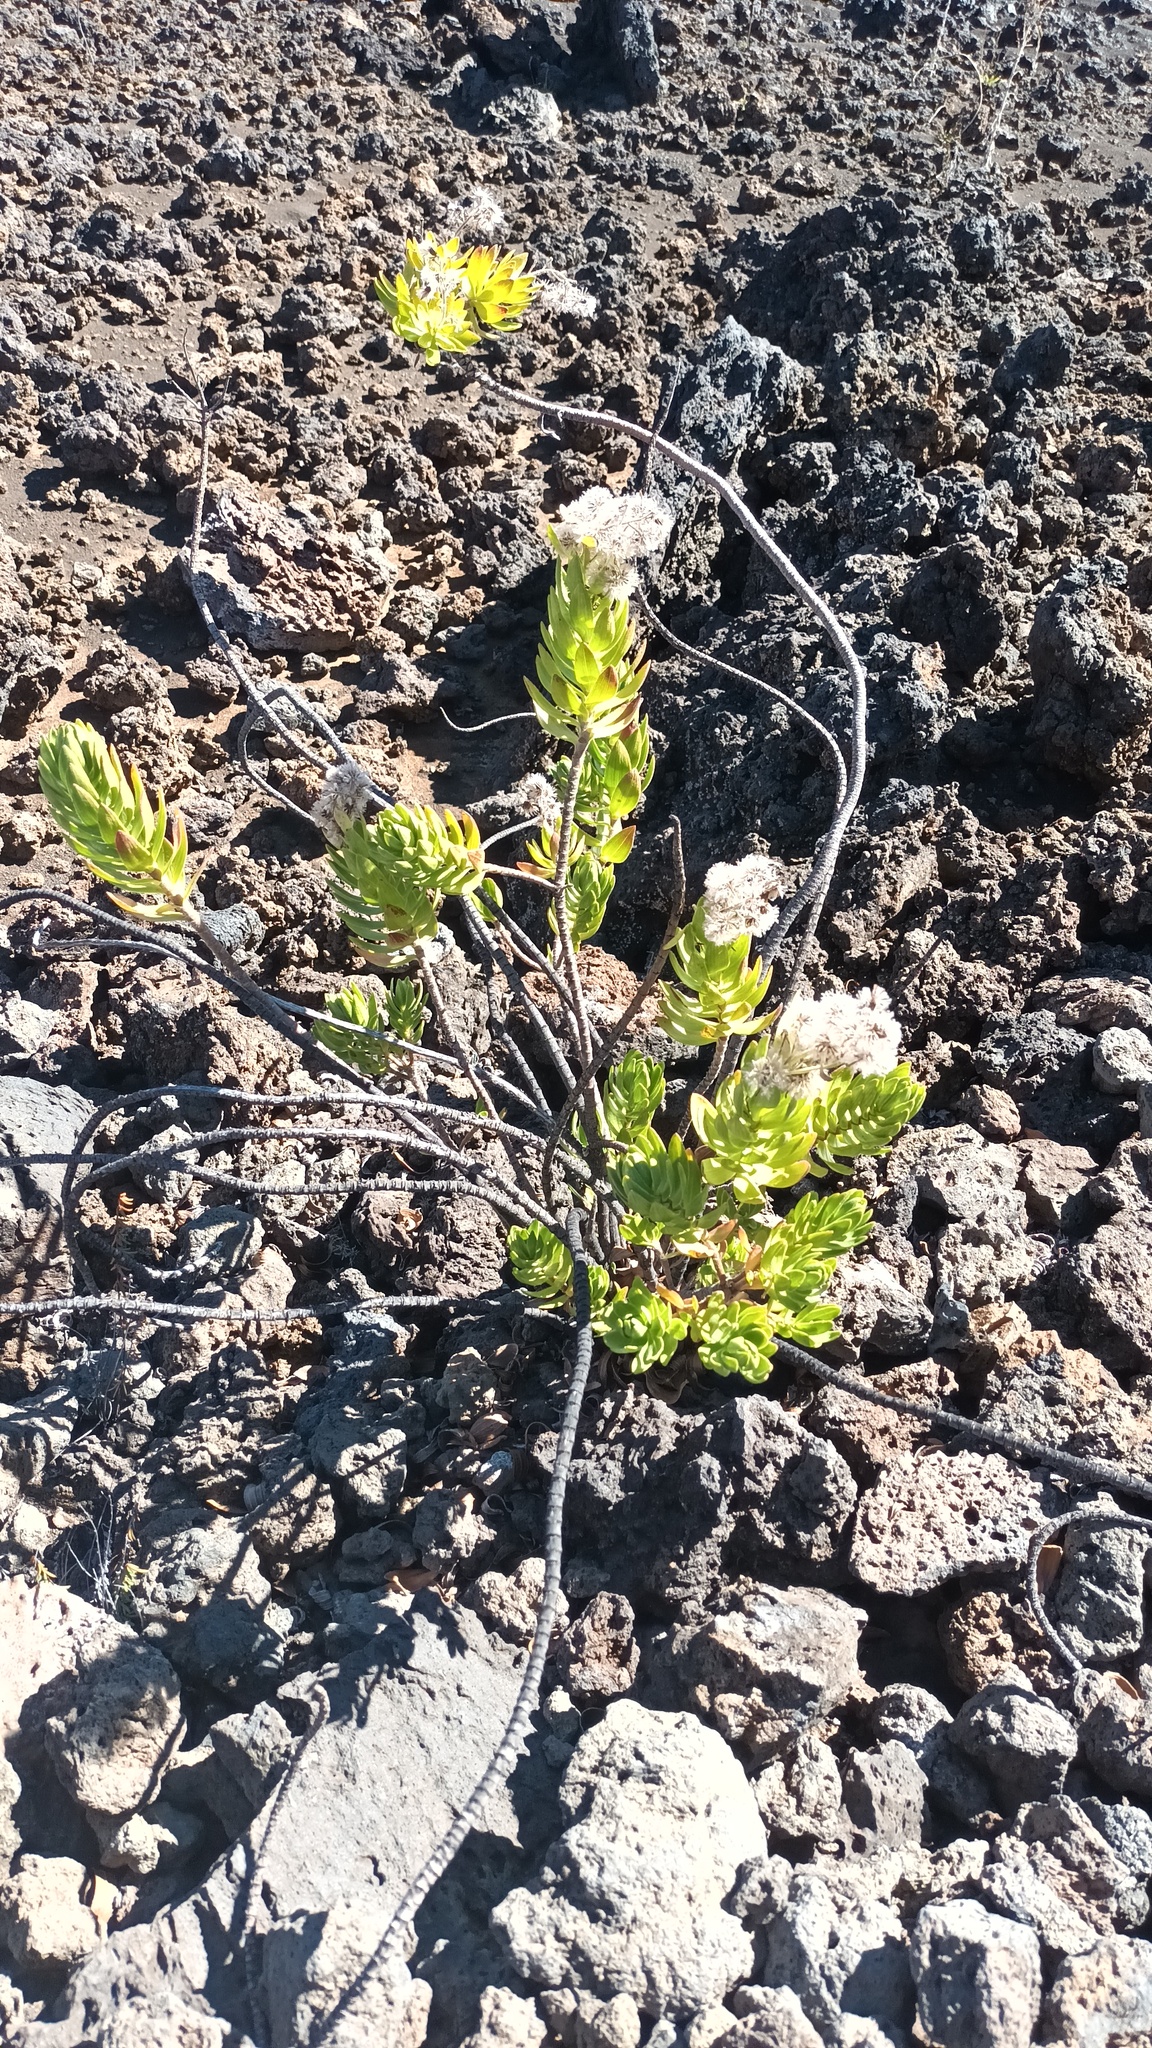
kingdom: Plantae
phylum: Tracheophyta
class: Magnoliopsida
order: Asterales
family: Asteraceae
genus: Dubautia
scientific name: Dubautia menziesii
